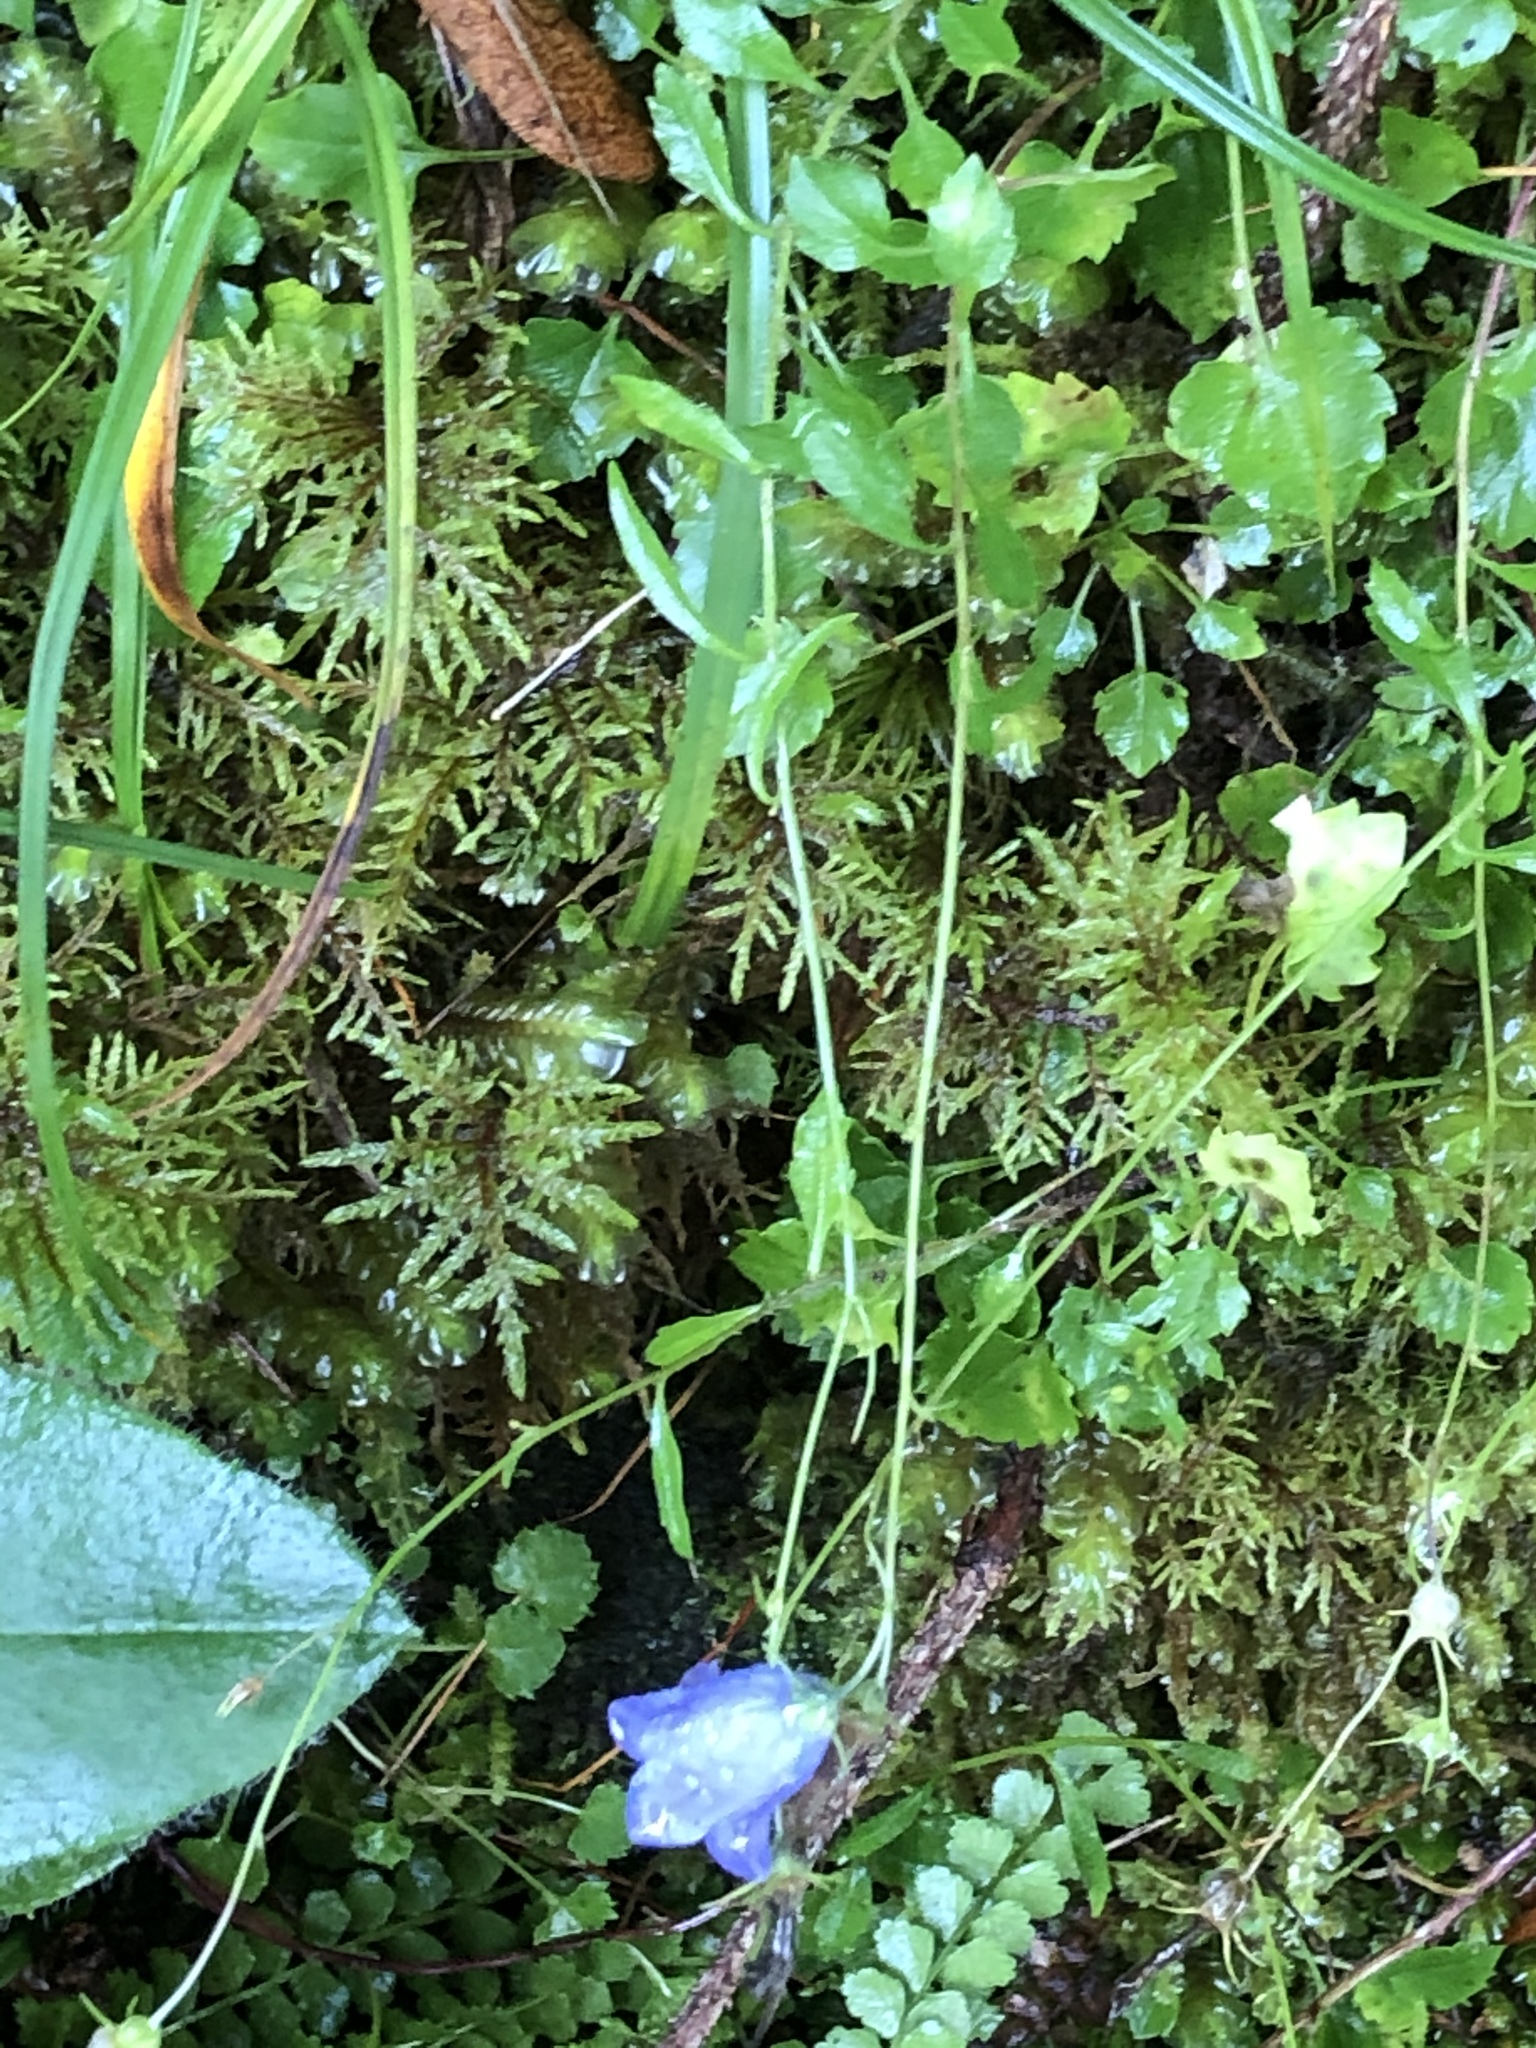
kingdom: Plantae
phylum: Tracheophyta
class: Magnoliopsida
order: Asterales
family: Campanulaceae
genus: Campanula
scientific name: Campanula cochleariifolia
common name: Fairies'-thimbles
